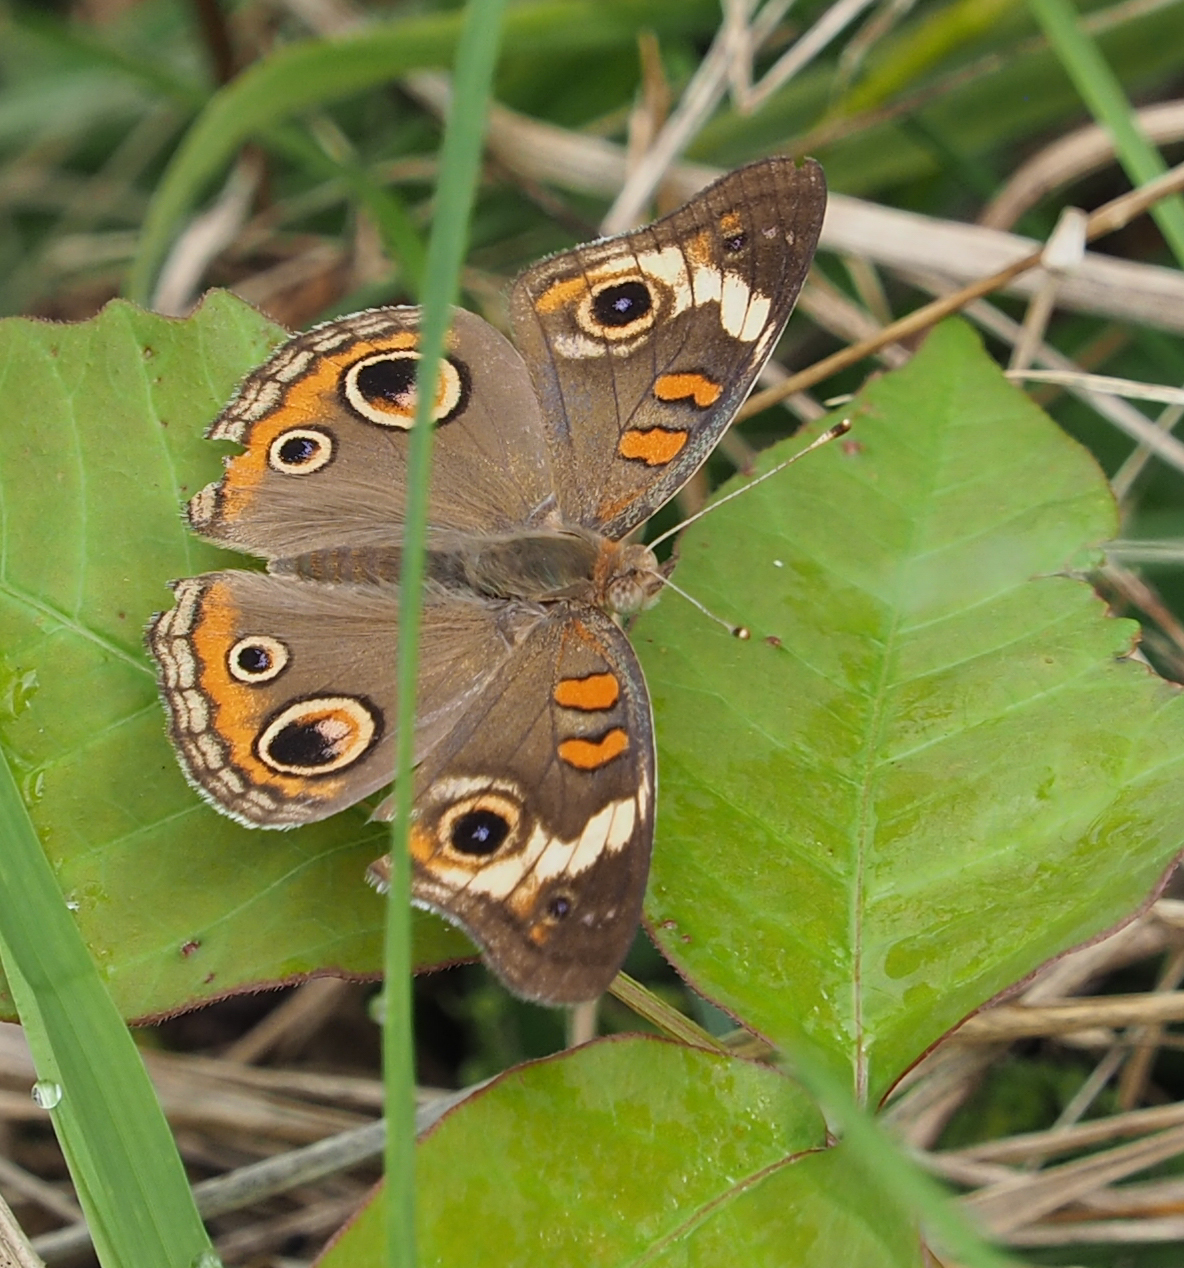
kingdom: Animalia
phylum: Arthropoda
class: Insecta
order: Lepidoptera
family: Nymphalidae
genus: Junonia
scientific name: Junonia coenia
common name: Common buckeye
